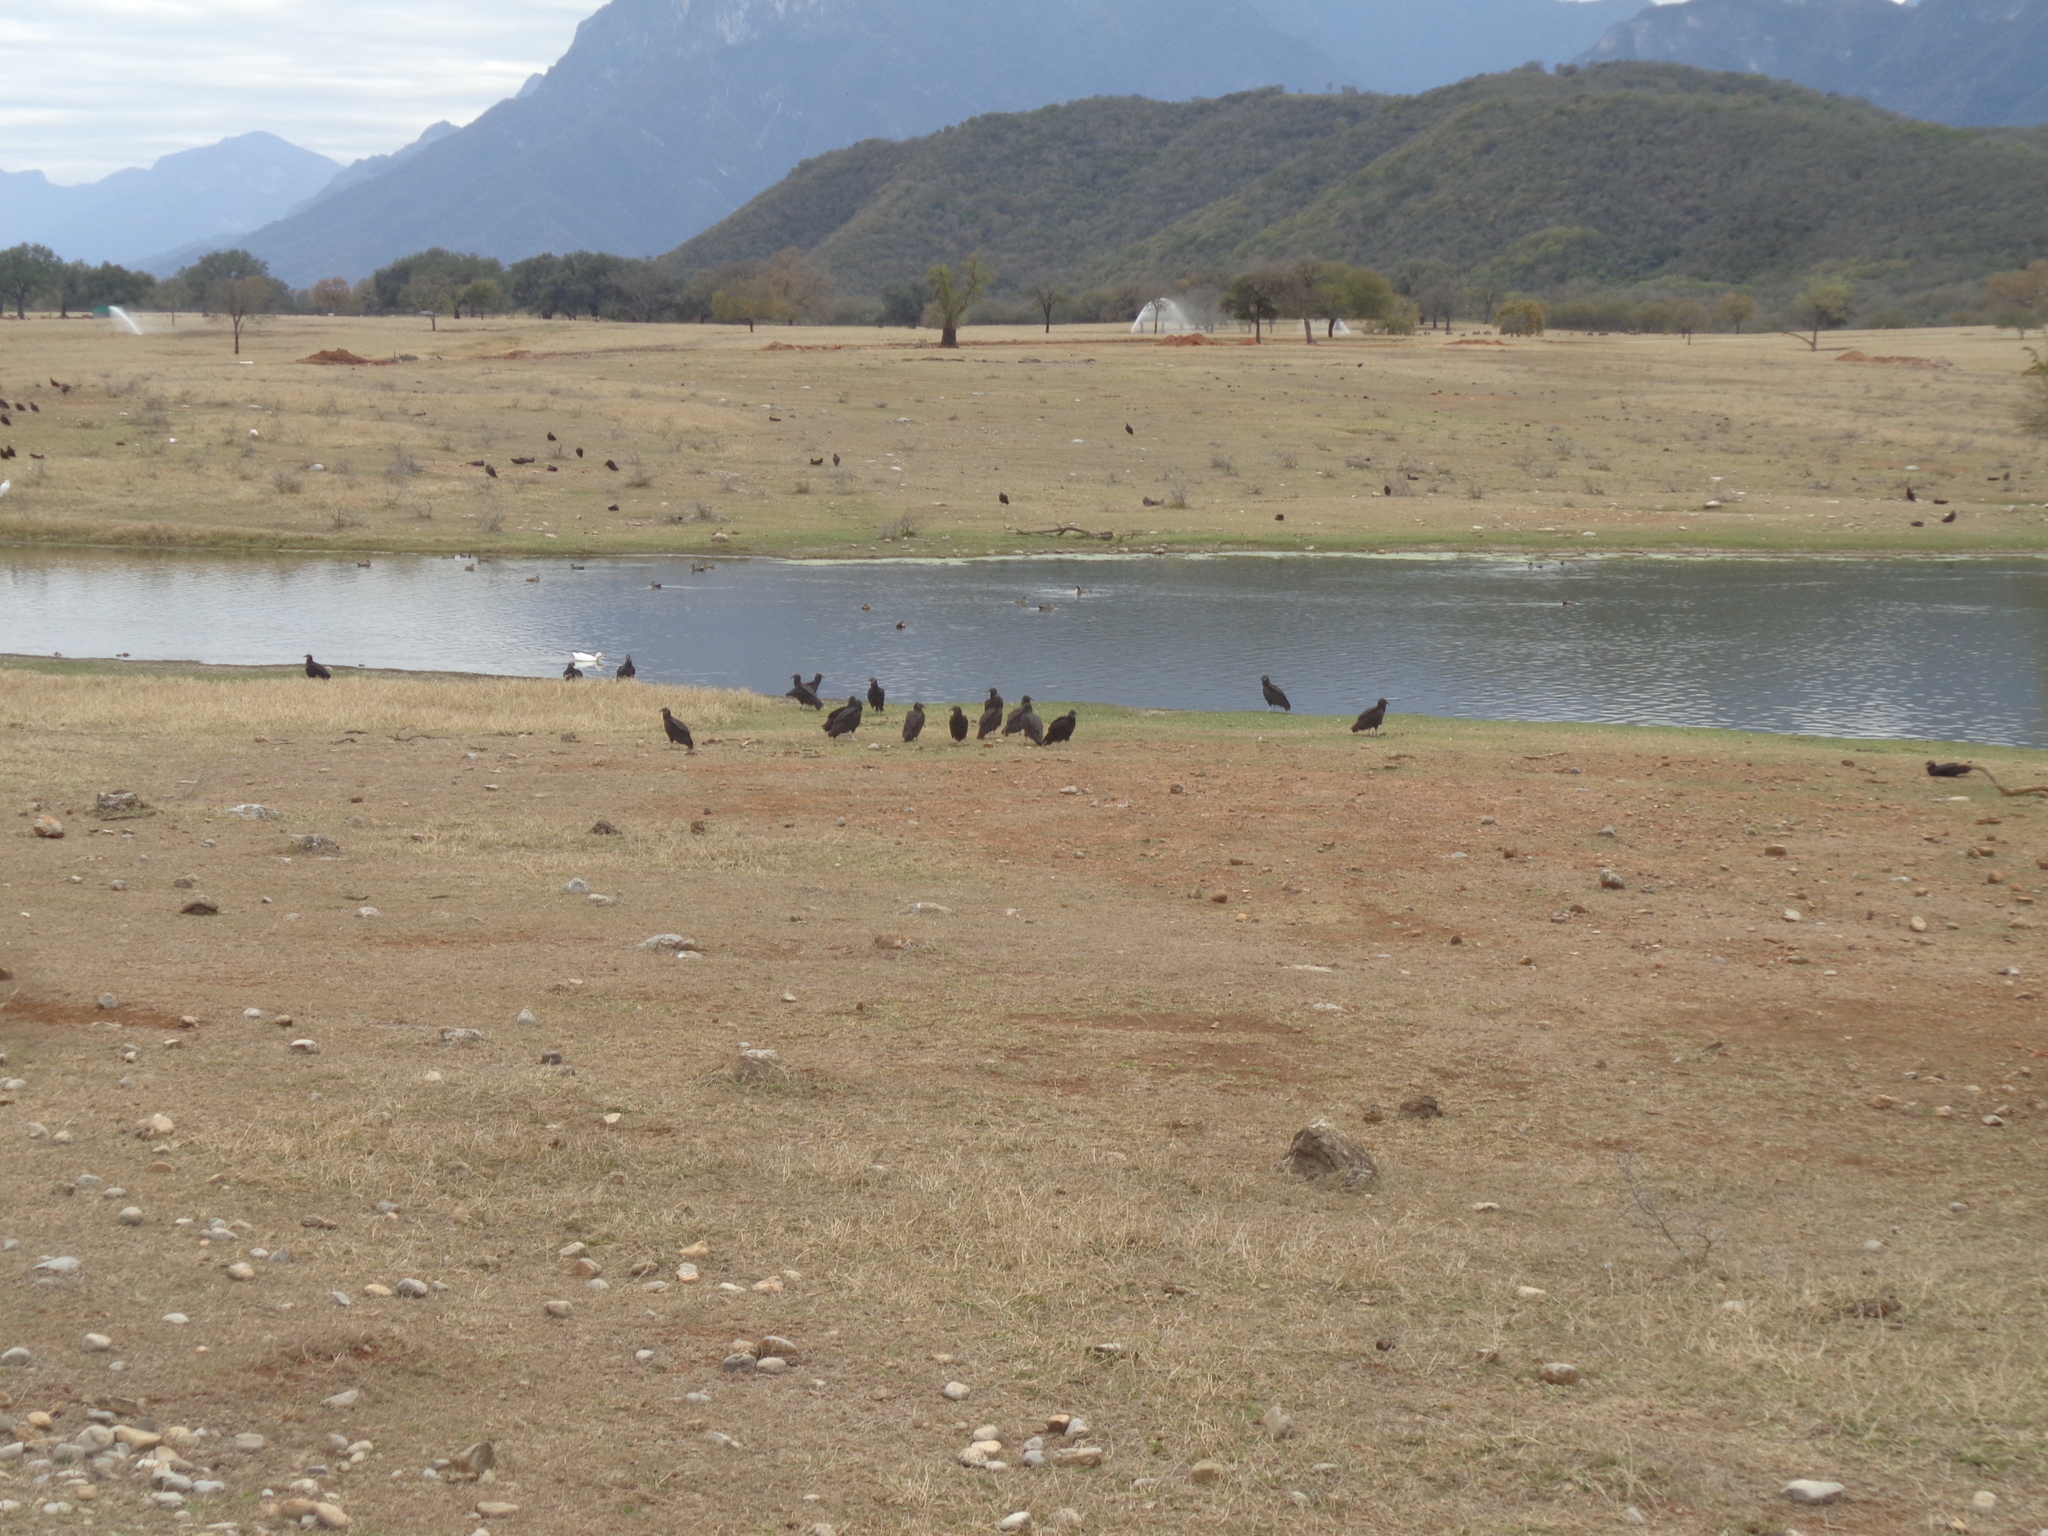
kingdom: Animalia
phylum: Chordata
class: Aves
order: Accipitriformes
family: Cathartidae
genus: Coragyps
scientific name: Coragyps atratus
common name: Black vulture
